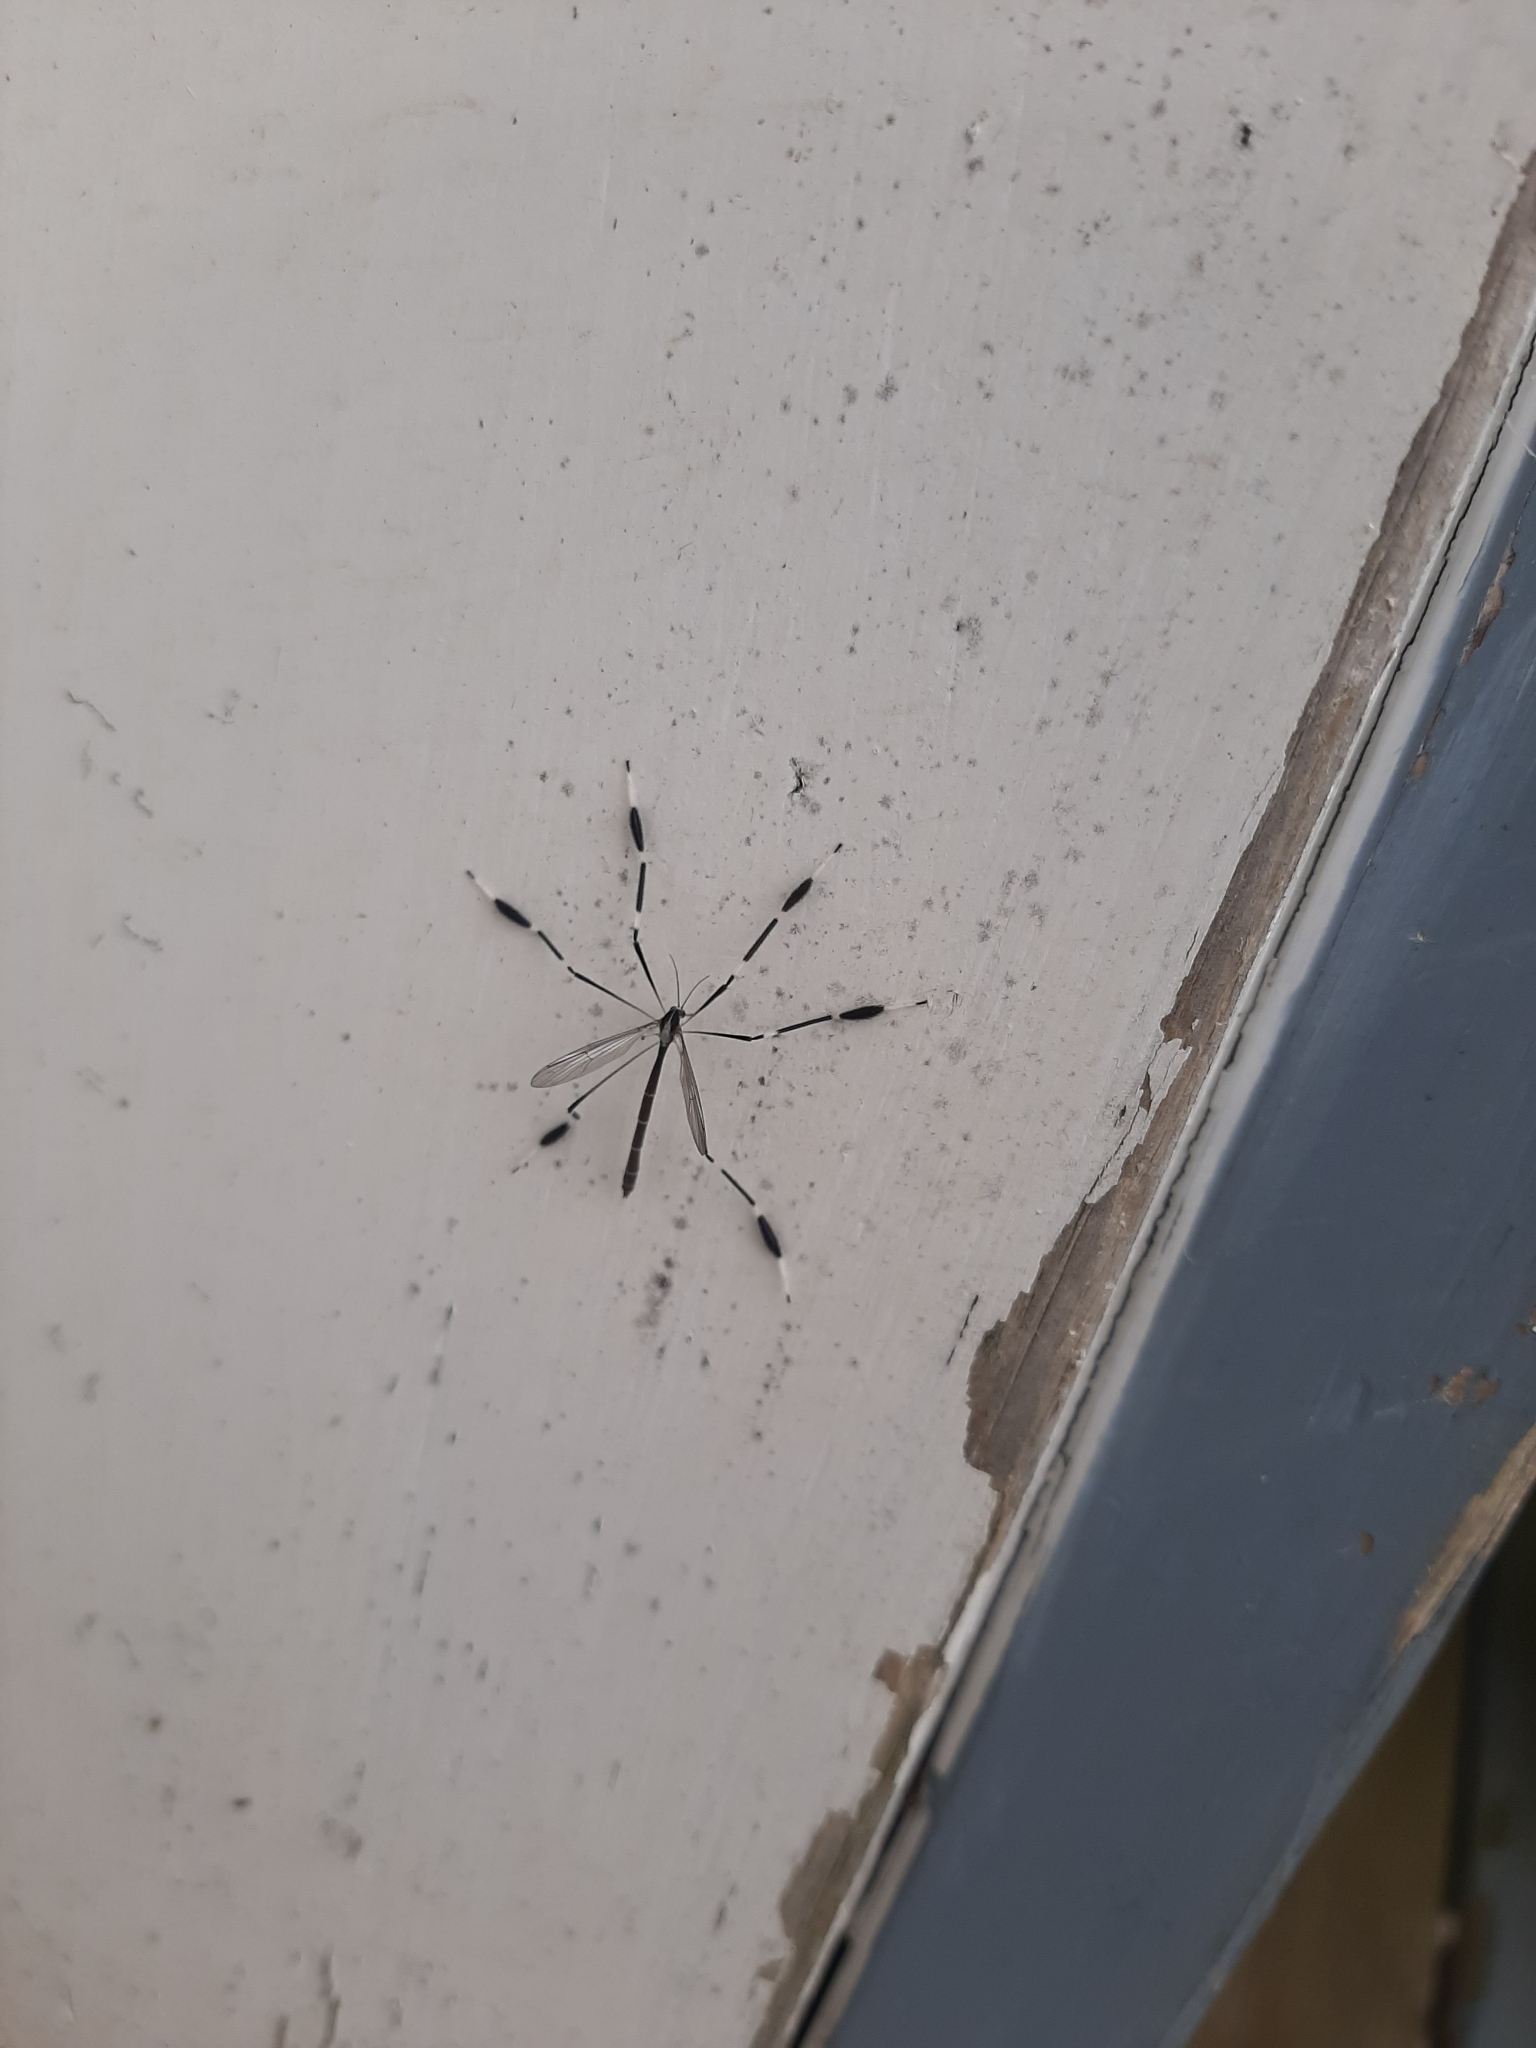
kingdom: Animalia
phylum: Arthropoda
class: Insecta
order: Diptera
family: Ptychopteridae
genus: Bittacomorpha
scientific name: Bittacomorpha clavipes
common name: Eastern phantom crane fly
